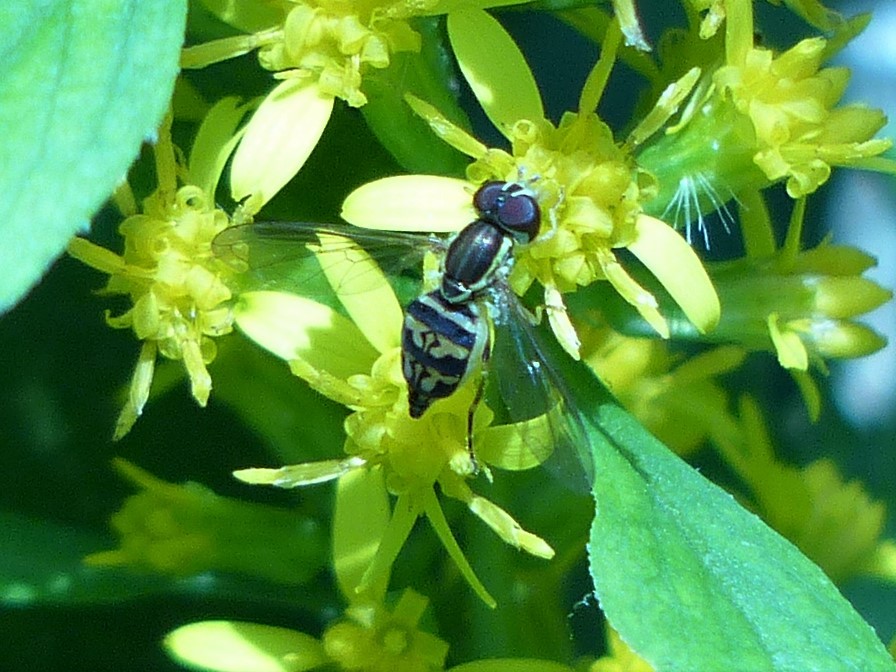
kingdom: Animalia
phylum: Arthropoda
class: Insecta
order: Diptera
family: Syrphidae
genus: Toxomerus
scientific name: Toxomerus geminatus
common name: Eastern calligrapher
